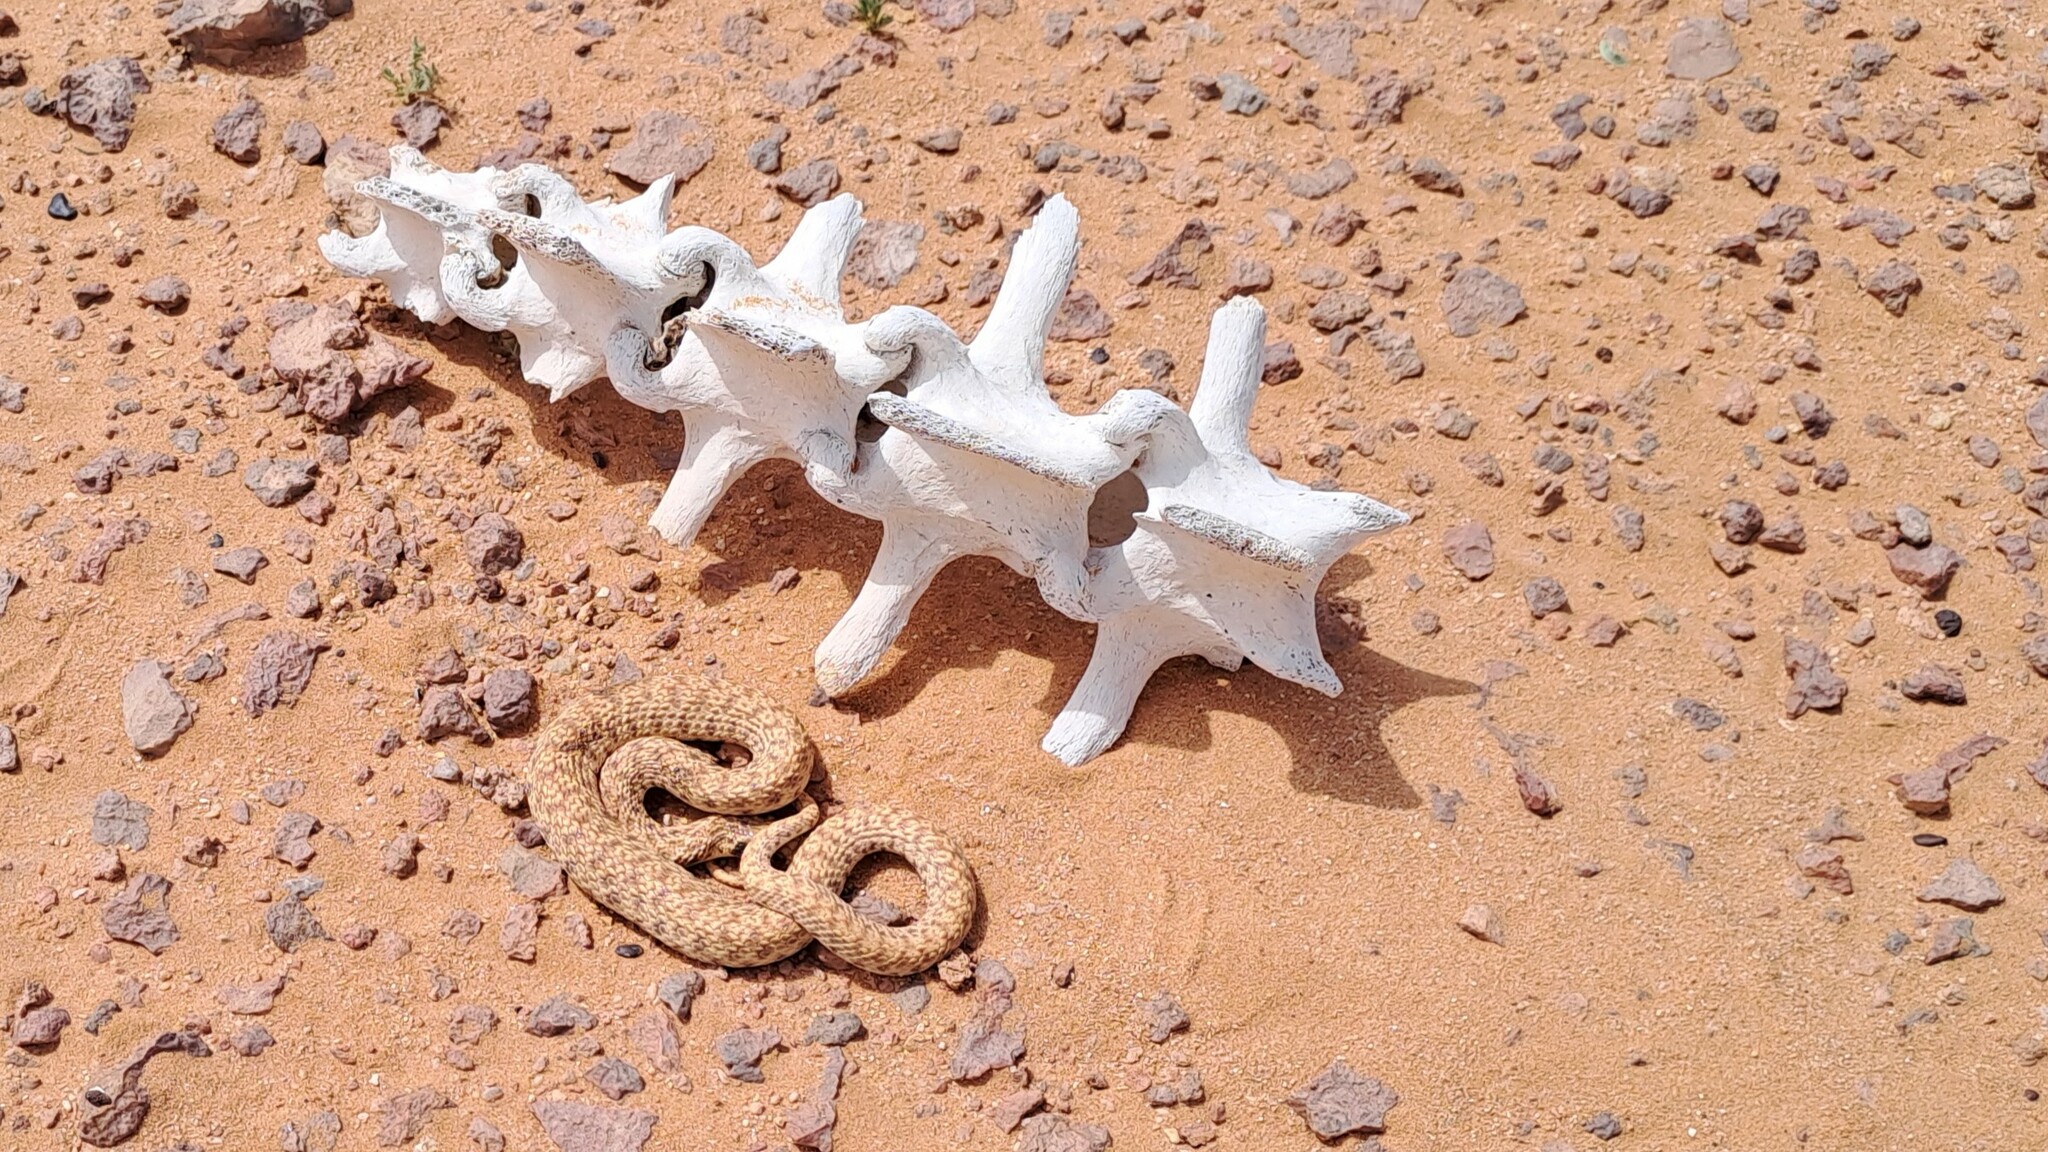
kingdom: Animalia
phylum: Chordata
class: Squamata
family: Psammophiidae
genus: Malpolon
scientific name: Malpolon moilensis
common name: Moila snake
